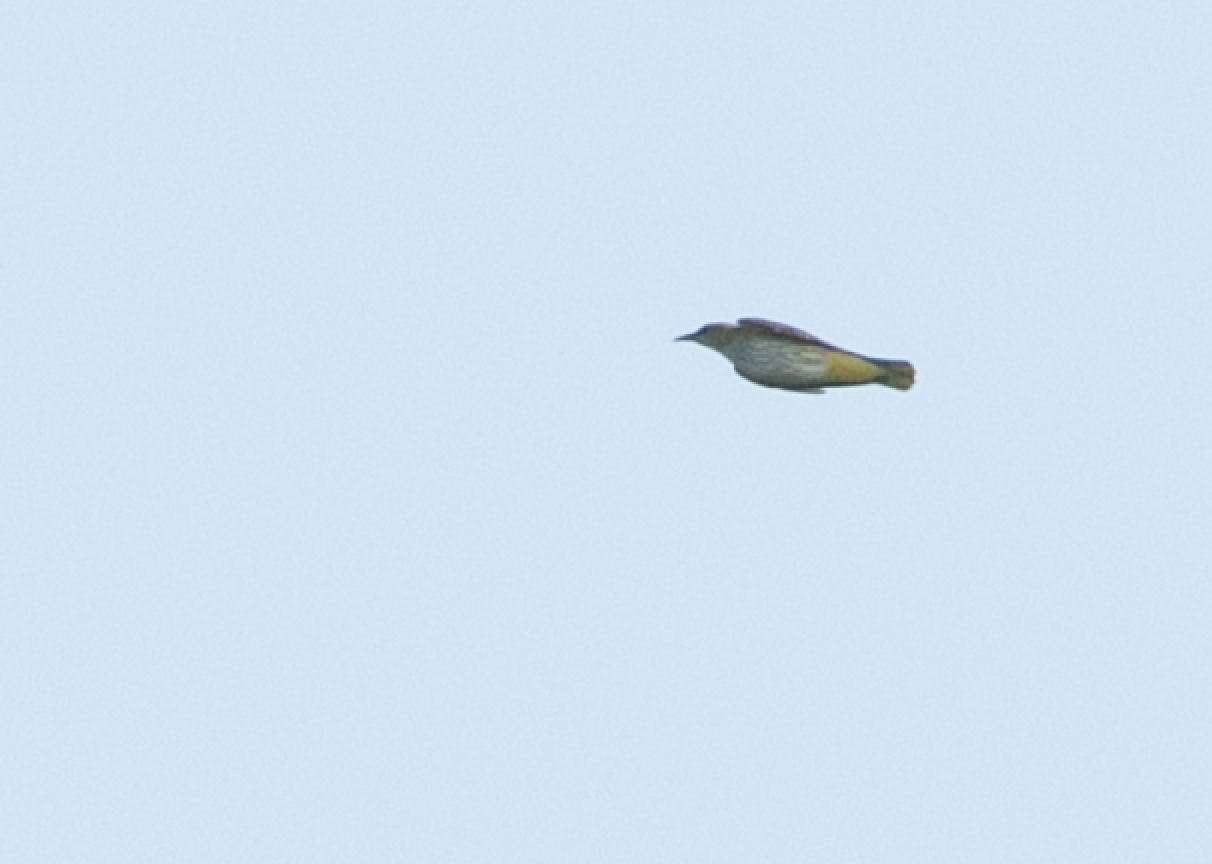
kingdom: Animalia
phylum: Chordata
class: Aves
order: Passeriformes
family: Oriolidae
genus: Oriolus
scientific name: Oriolus oriolus
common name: Eurasian golden oriole
